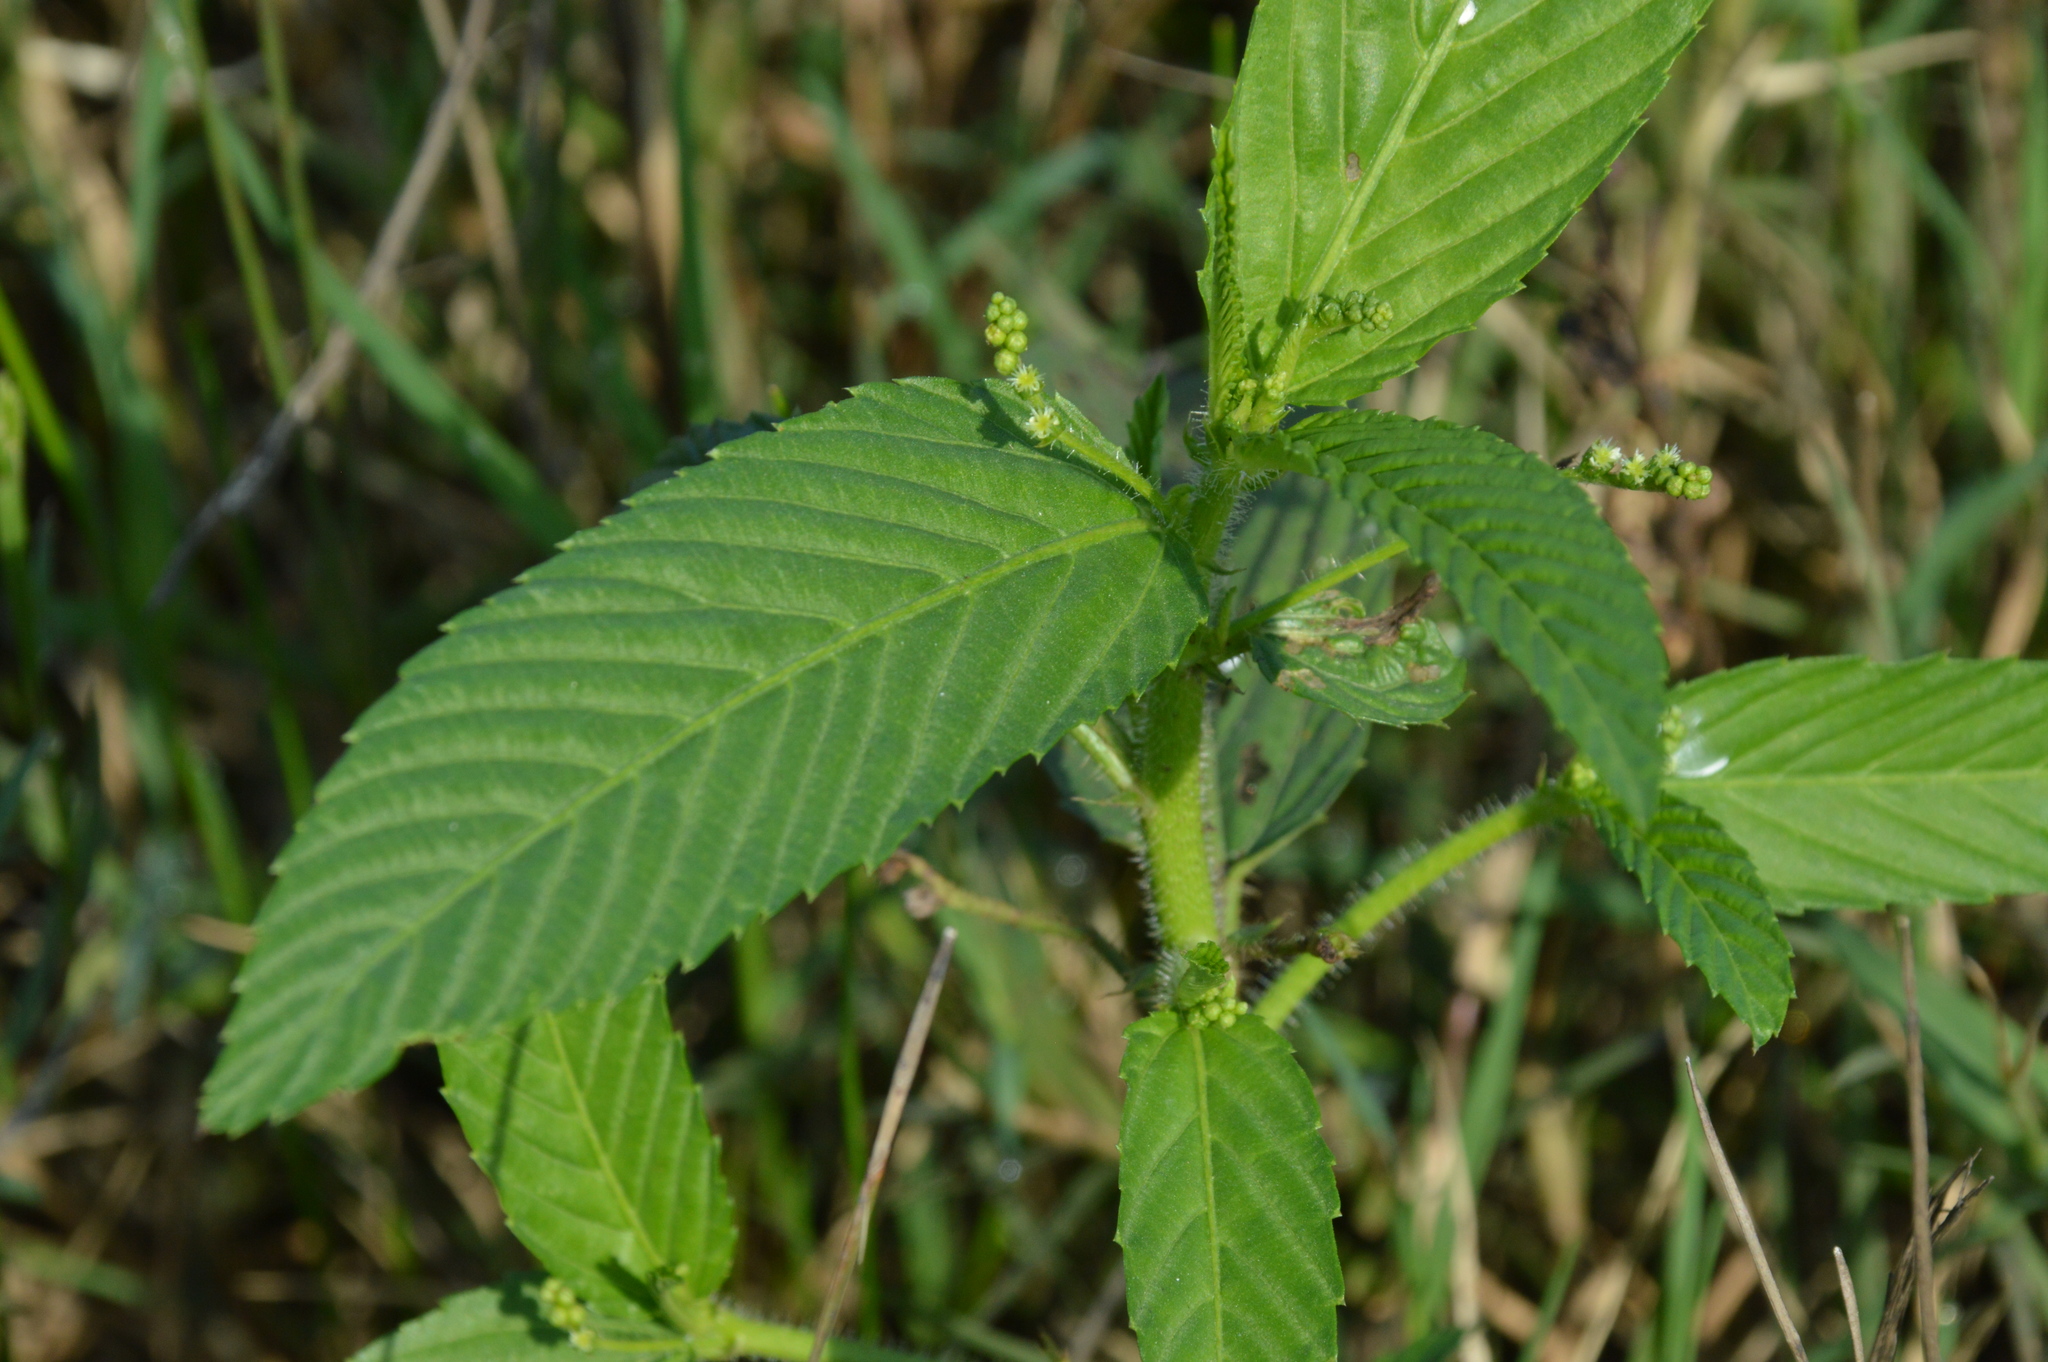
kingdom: Plantae
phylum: Tracheophyta
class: Magnoliopsida
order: Malpighiales
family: Euphorbiaceae
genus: Caperonia
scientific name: Caperonia palustris
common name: Sacatrapo
